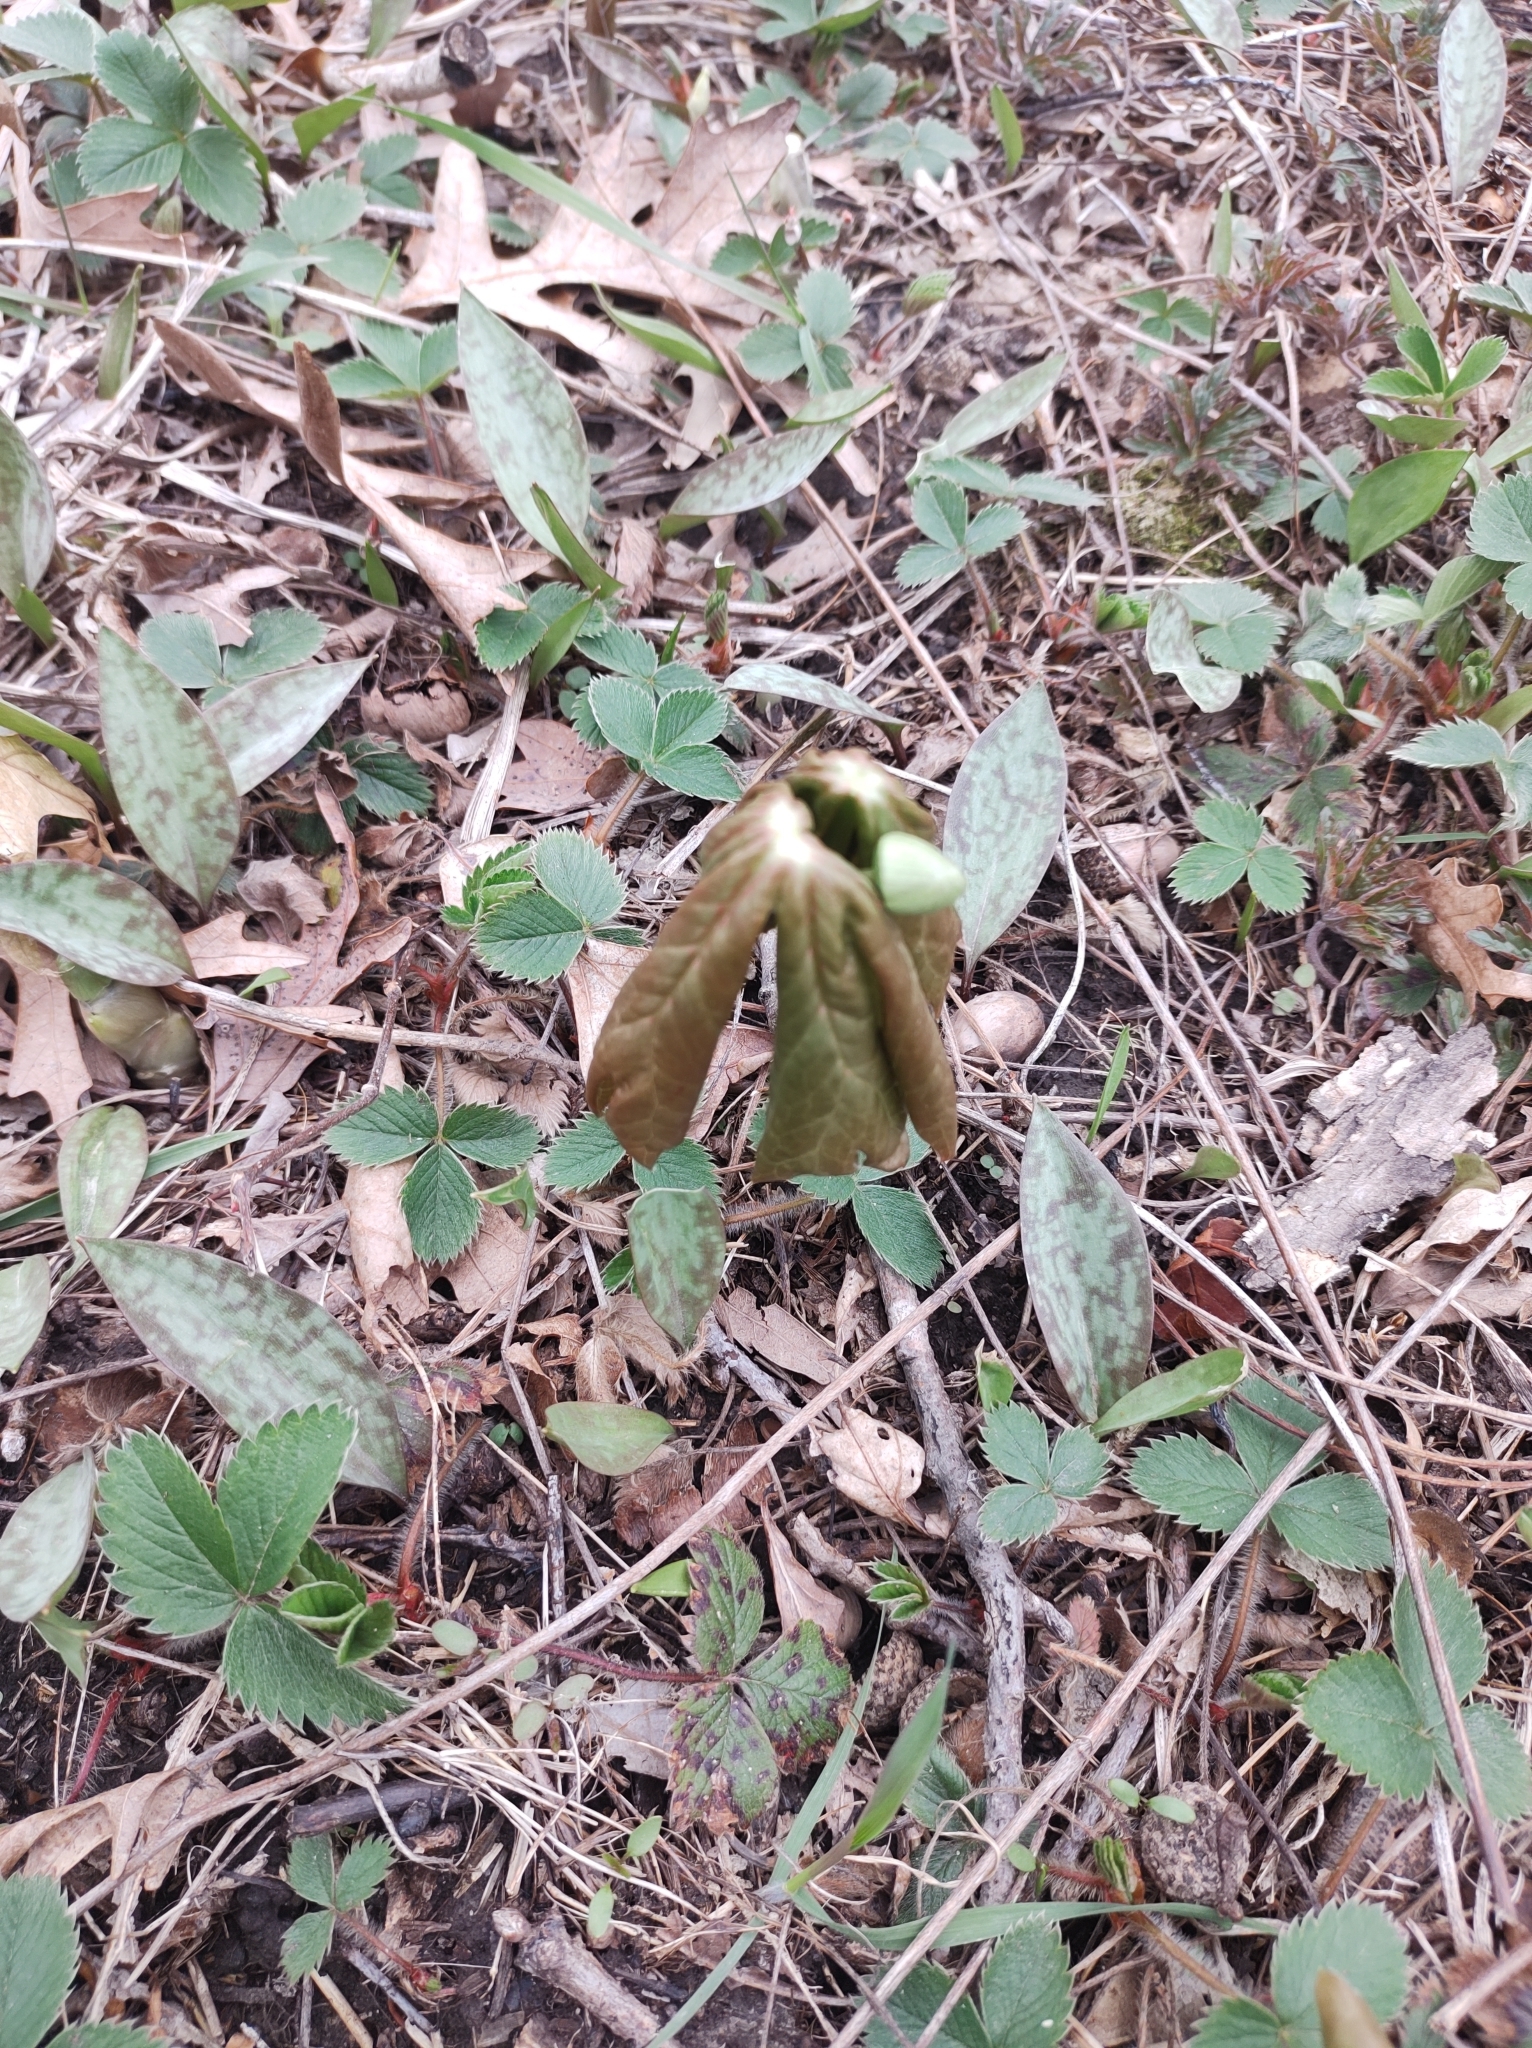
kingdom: Plantae
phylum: Tracheophyta
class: Magnoliopsida
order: Ranunculales
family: Berberidaceae
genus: Podophyllum
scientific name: Podophyllum peltatum
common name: Wild mandrake
